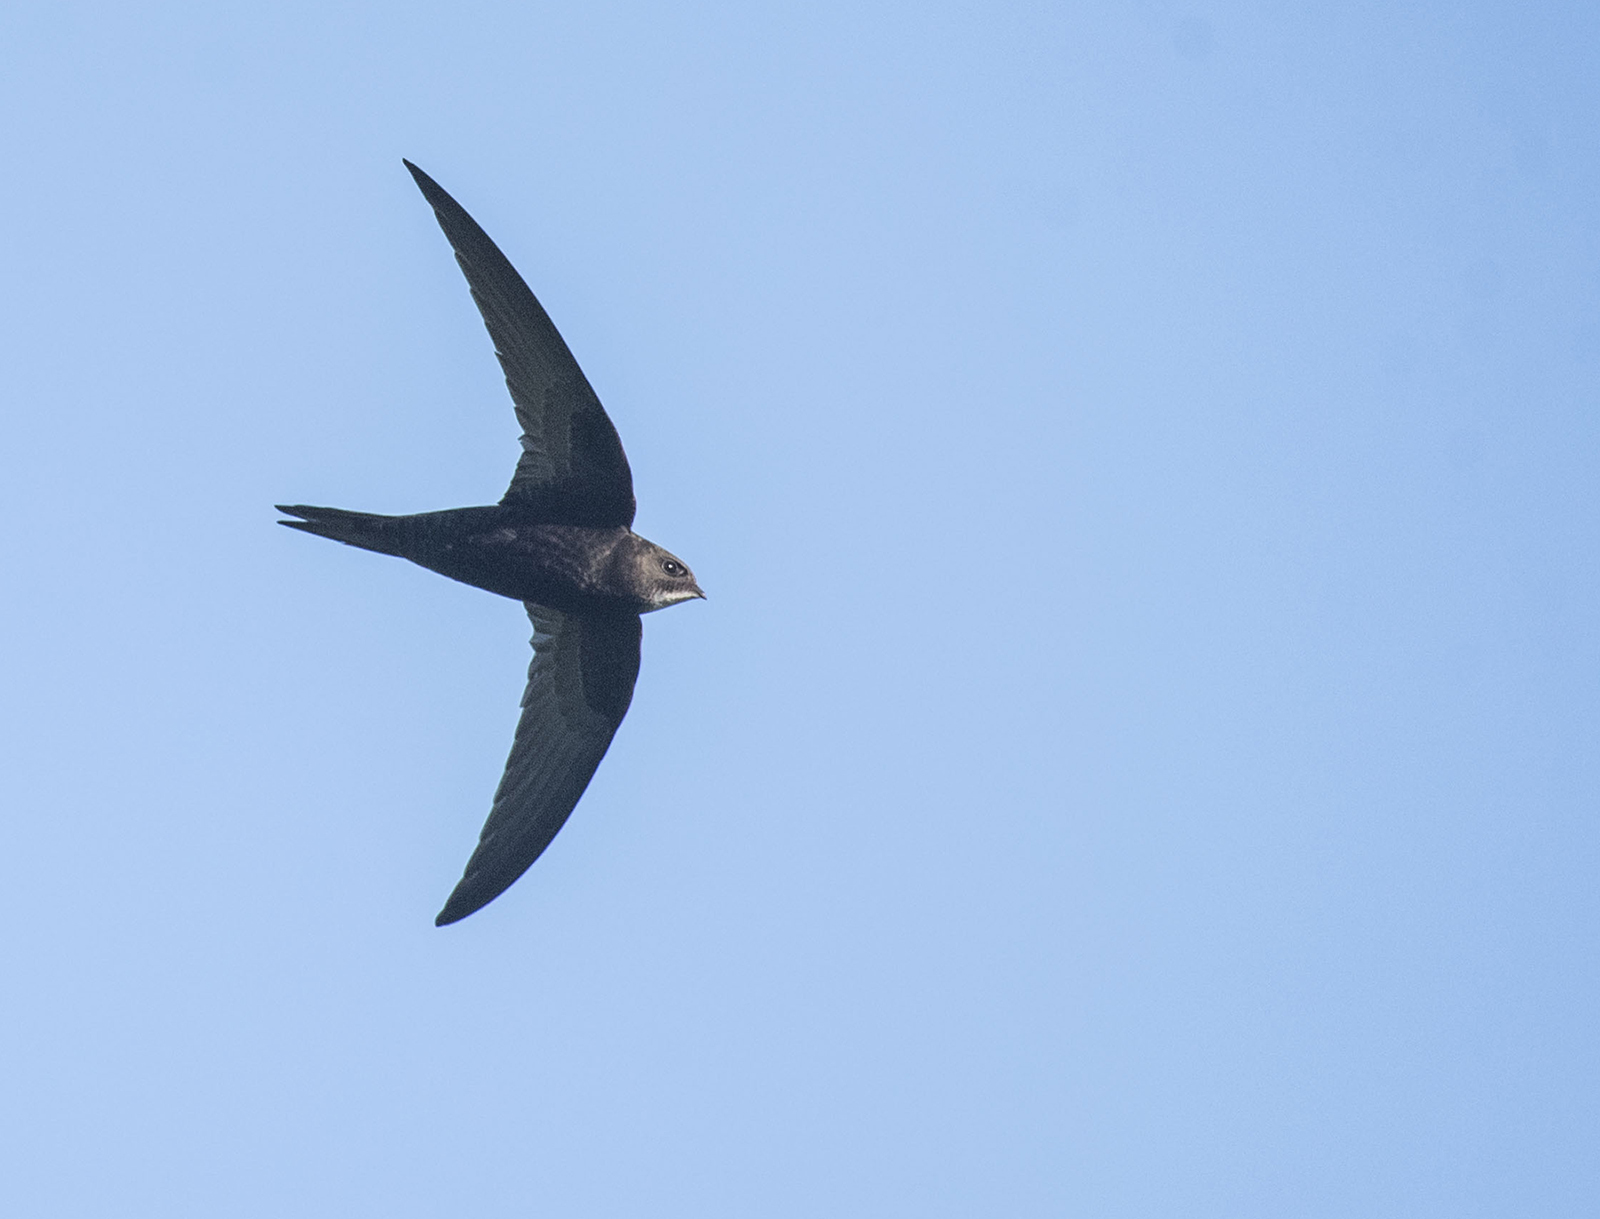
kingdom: Animalia
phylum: Chordata
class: Aves
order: Apodiformes
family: Apodidae
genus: Apus
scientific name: Apus apus
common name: Common swift
